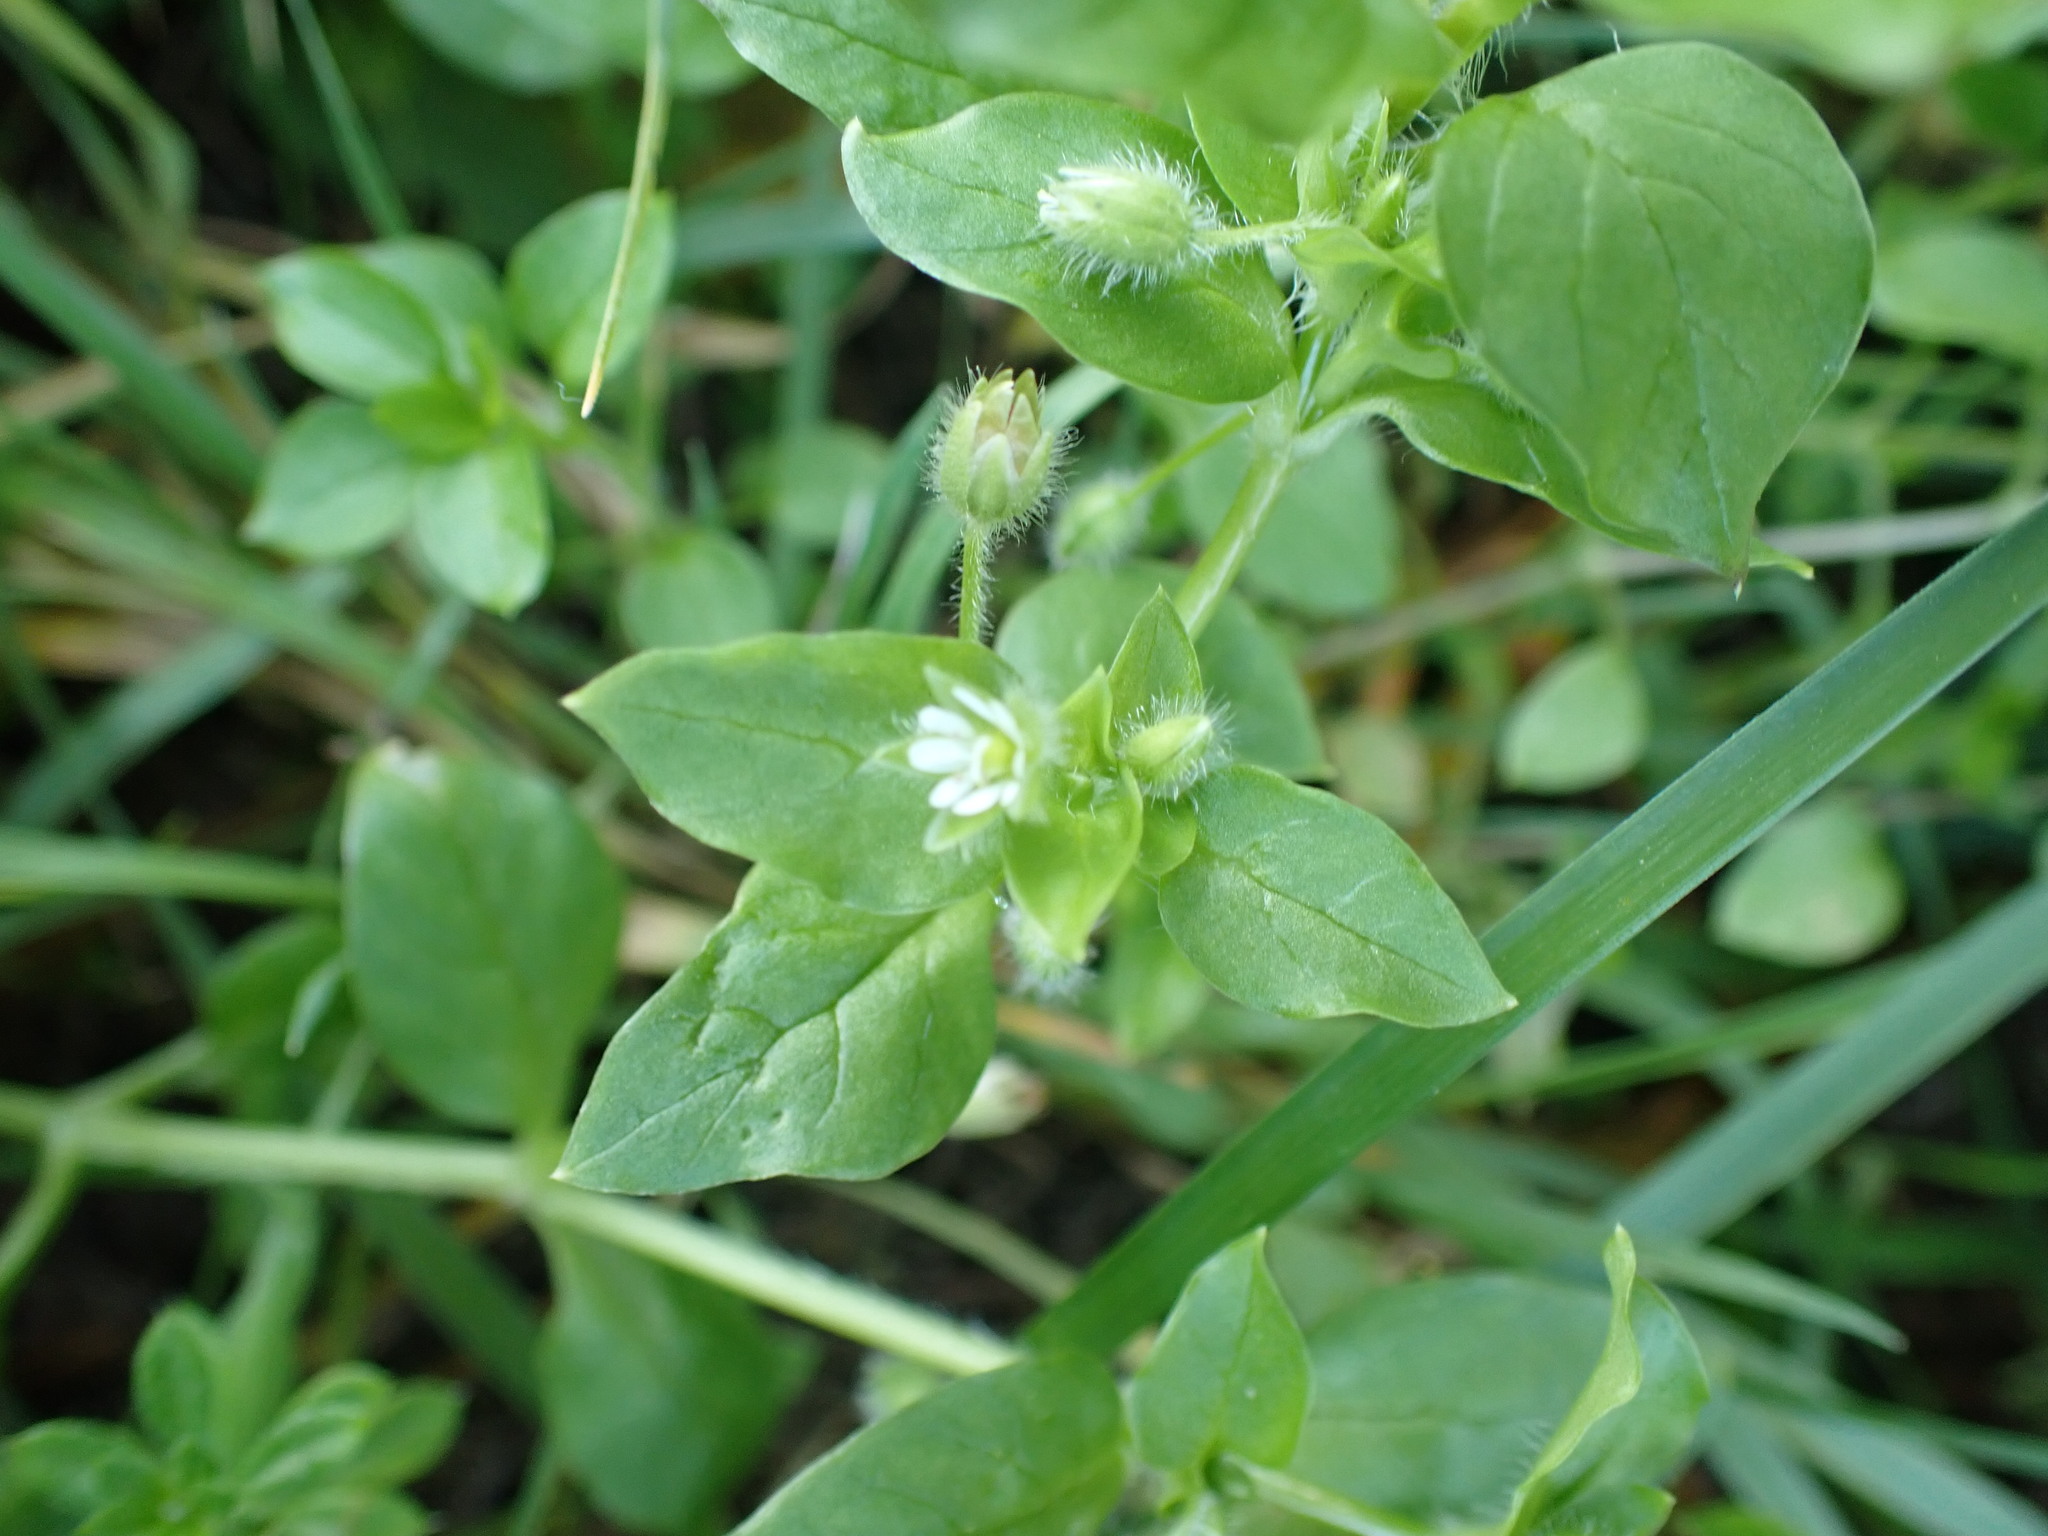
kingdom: Plantae
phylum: Tracheophyta
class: Magnoliopsida
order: Caryophyllales
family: Caryophyllaceae
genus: Stellaria
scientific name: Stellaria media
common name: Common chickweed
